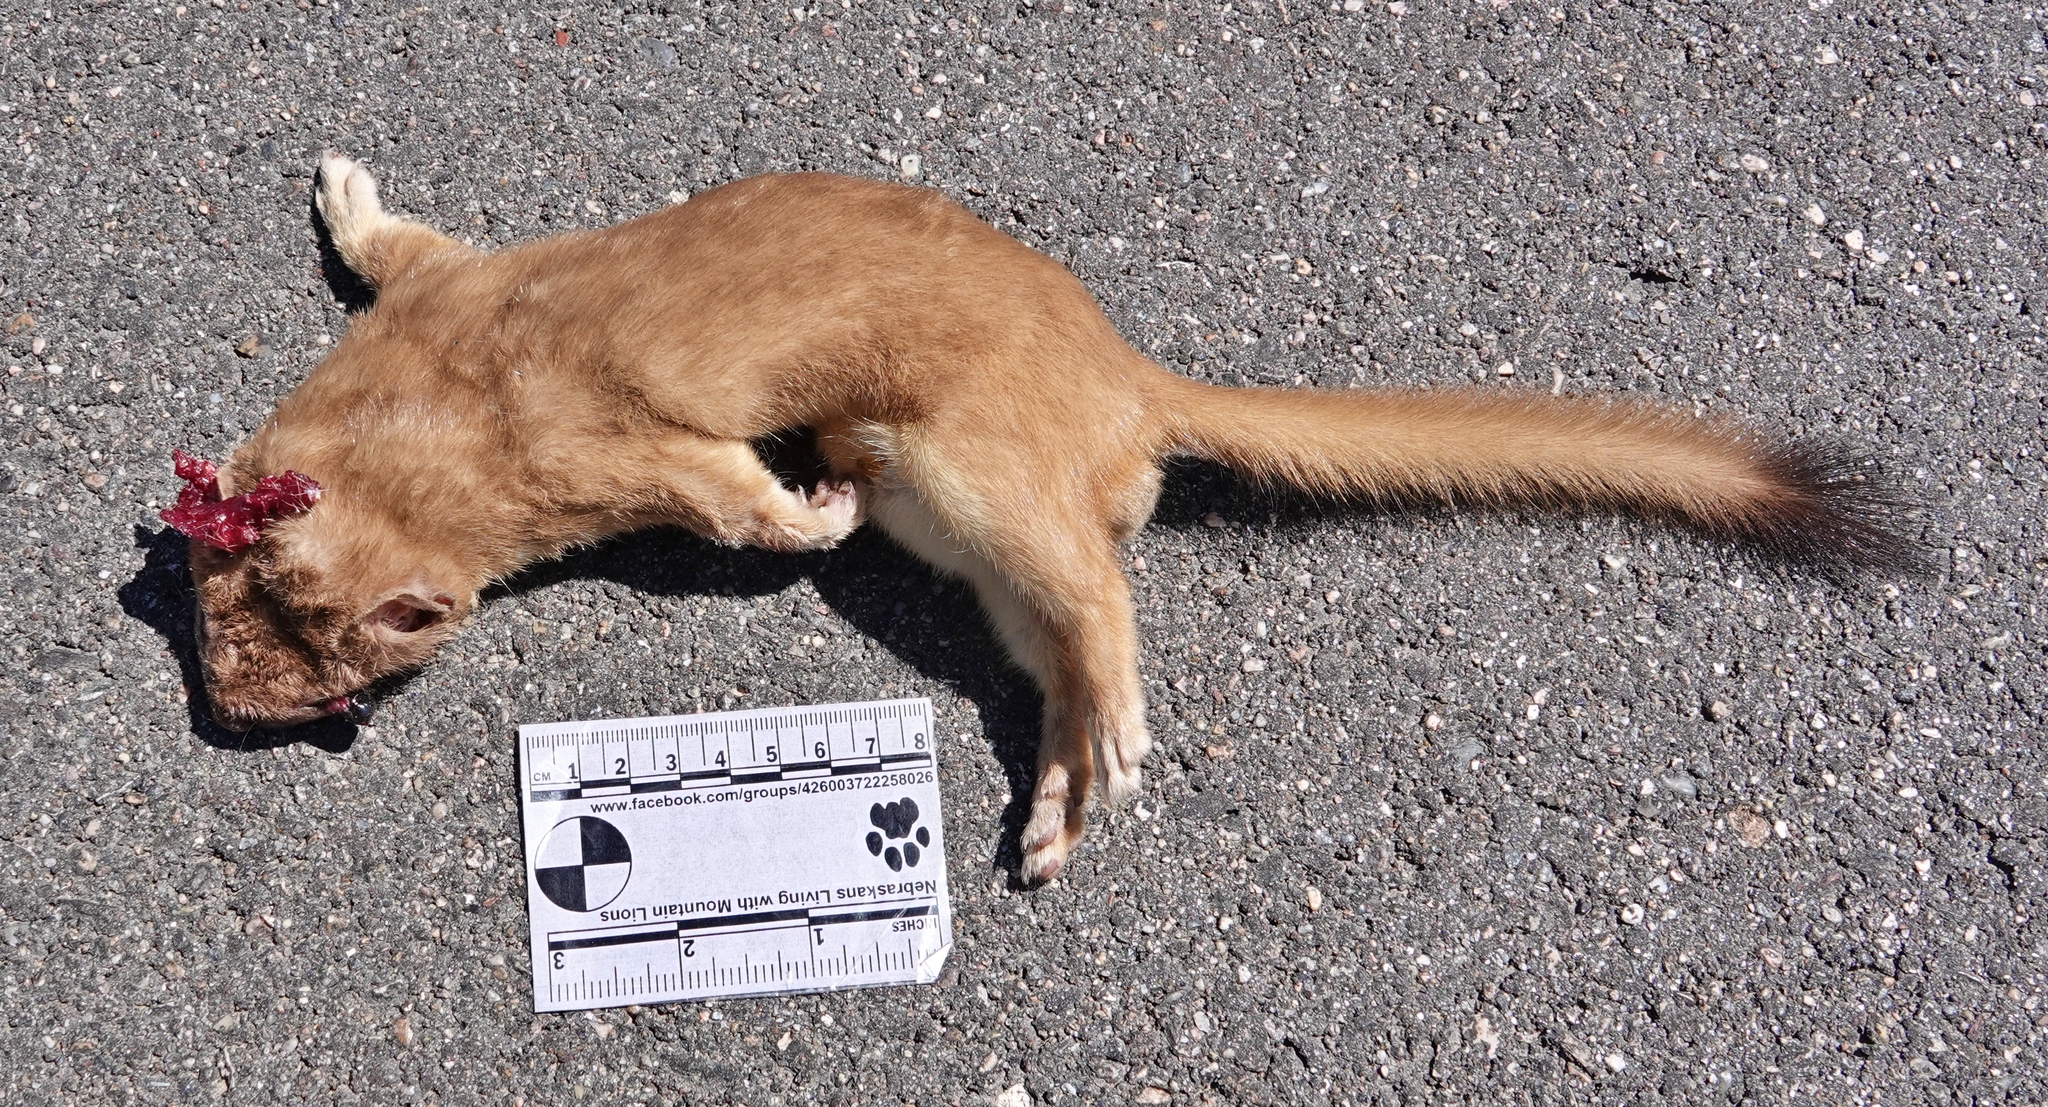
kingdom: Animalia
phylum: Chordata
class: Mammalia
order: Carnivora
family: Mustelidae
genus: Mustela
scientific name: Mustela
